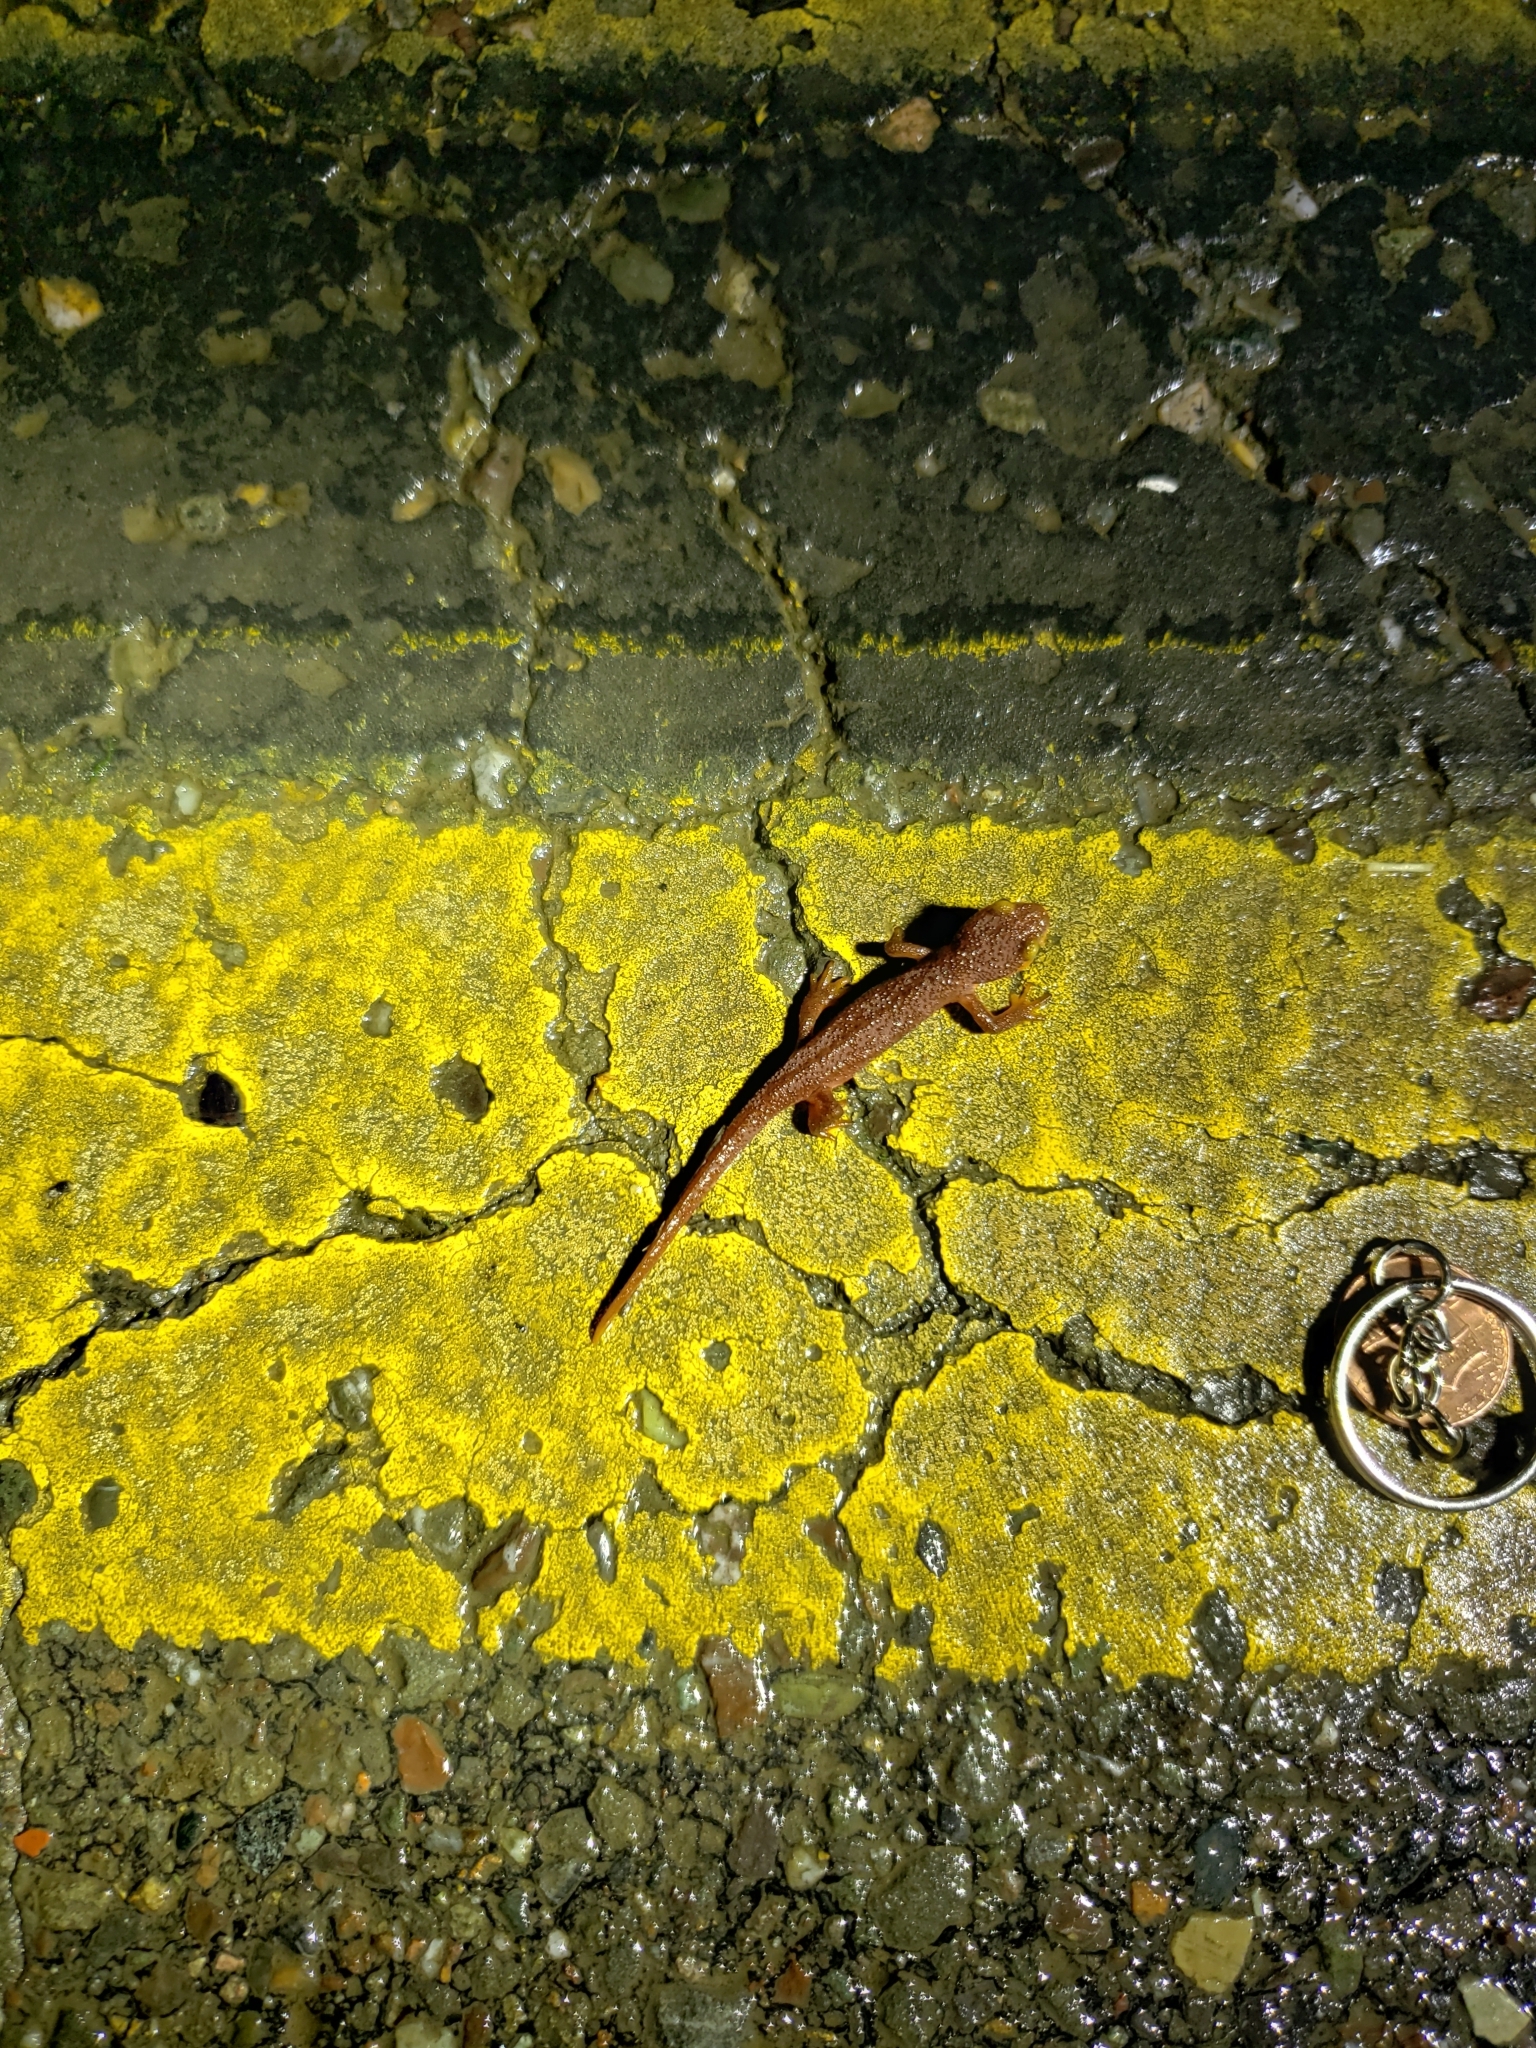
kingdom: Animalia
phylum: Chordata
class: Amphibia
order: Caudata
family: Salamandridae
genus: Taricha
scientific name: Taricha torosa
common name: California newt
